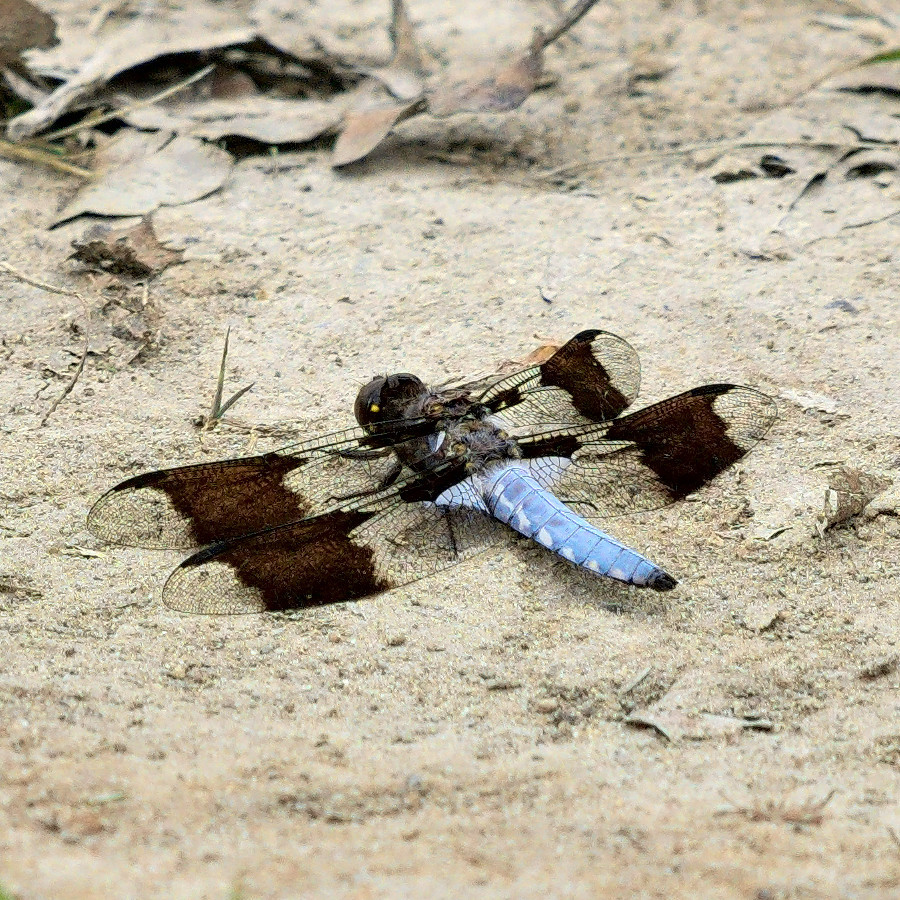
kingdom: Animalia
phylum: Arthropoda
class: Insecta
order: Odonata
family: Libellulidae
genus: Plathemis
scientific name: Plathemis lydia
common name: Common whitetail
